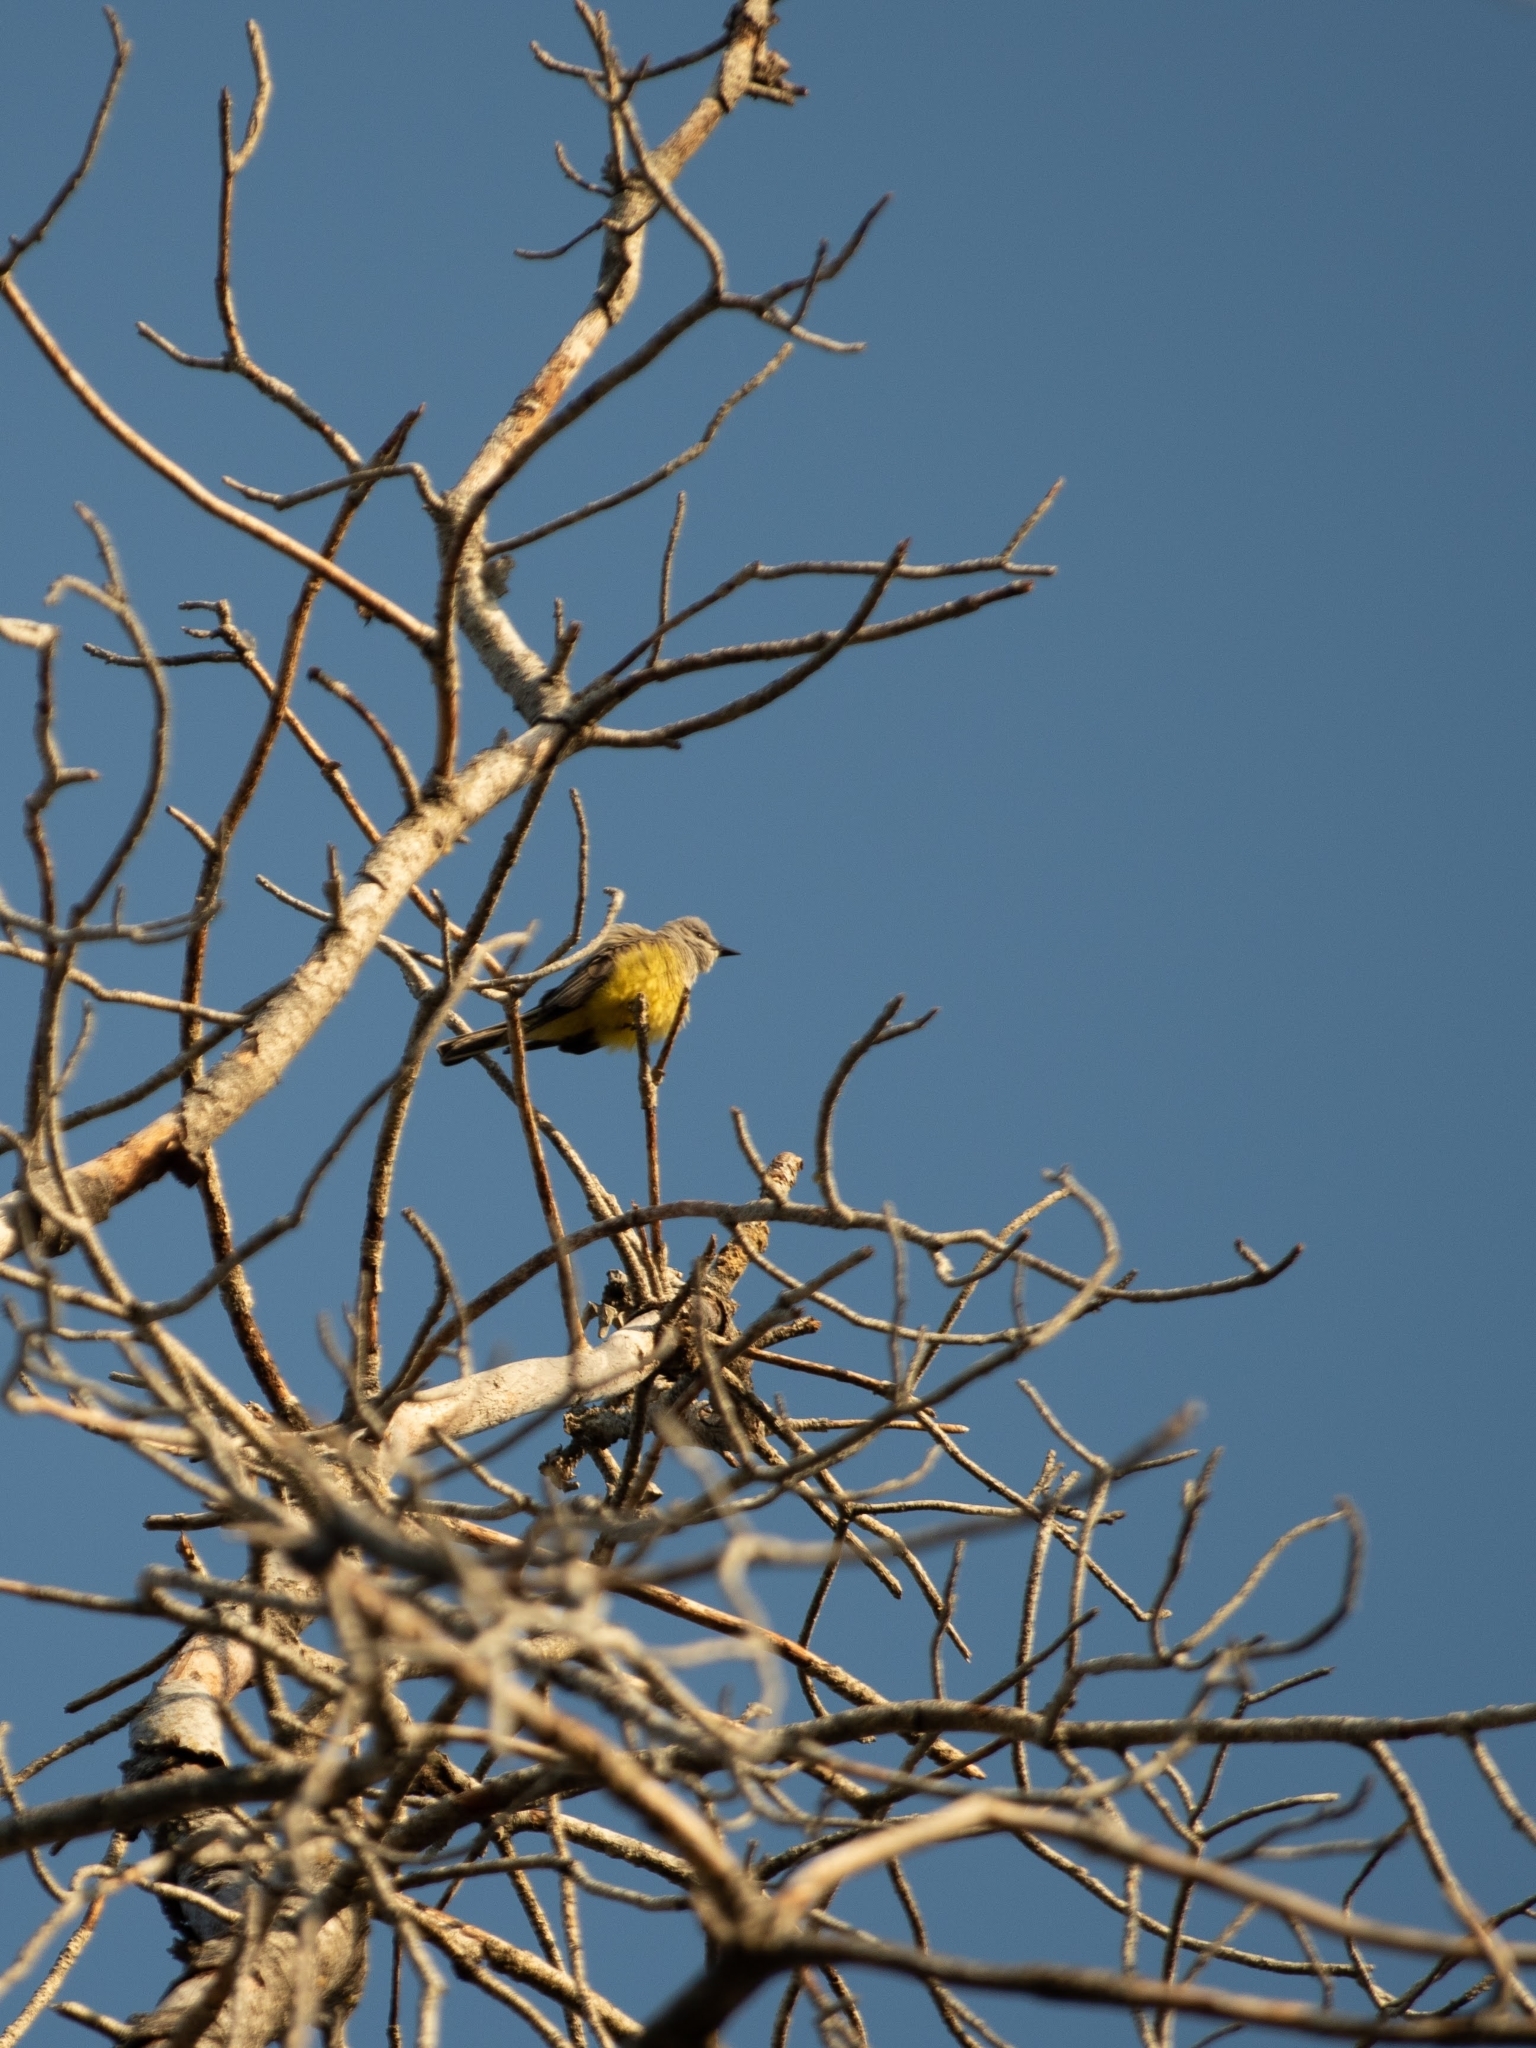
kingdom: Animalia
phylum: Chordata
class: Aves
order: Passeriformes
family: Tyrannidae
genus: Tyrannus
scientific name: Tyrannus verticalis
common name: Western kingbird
